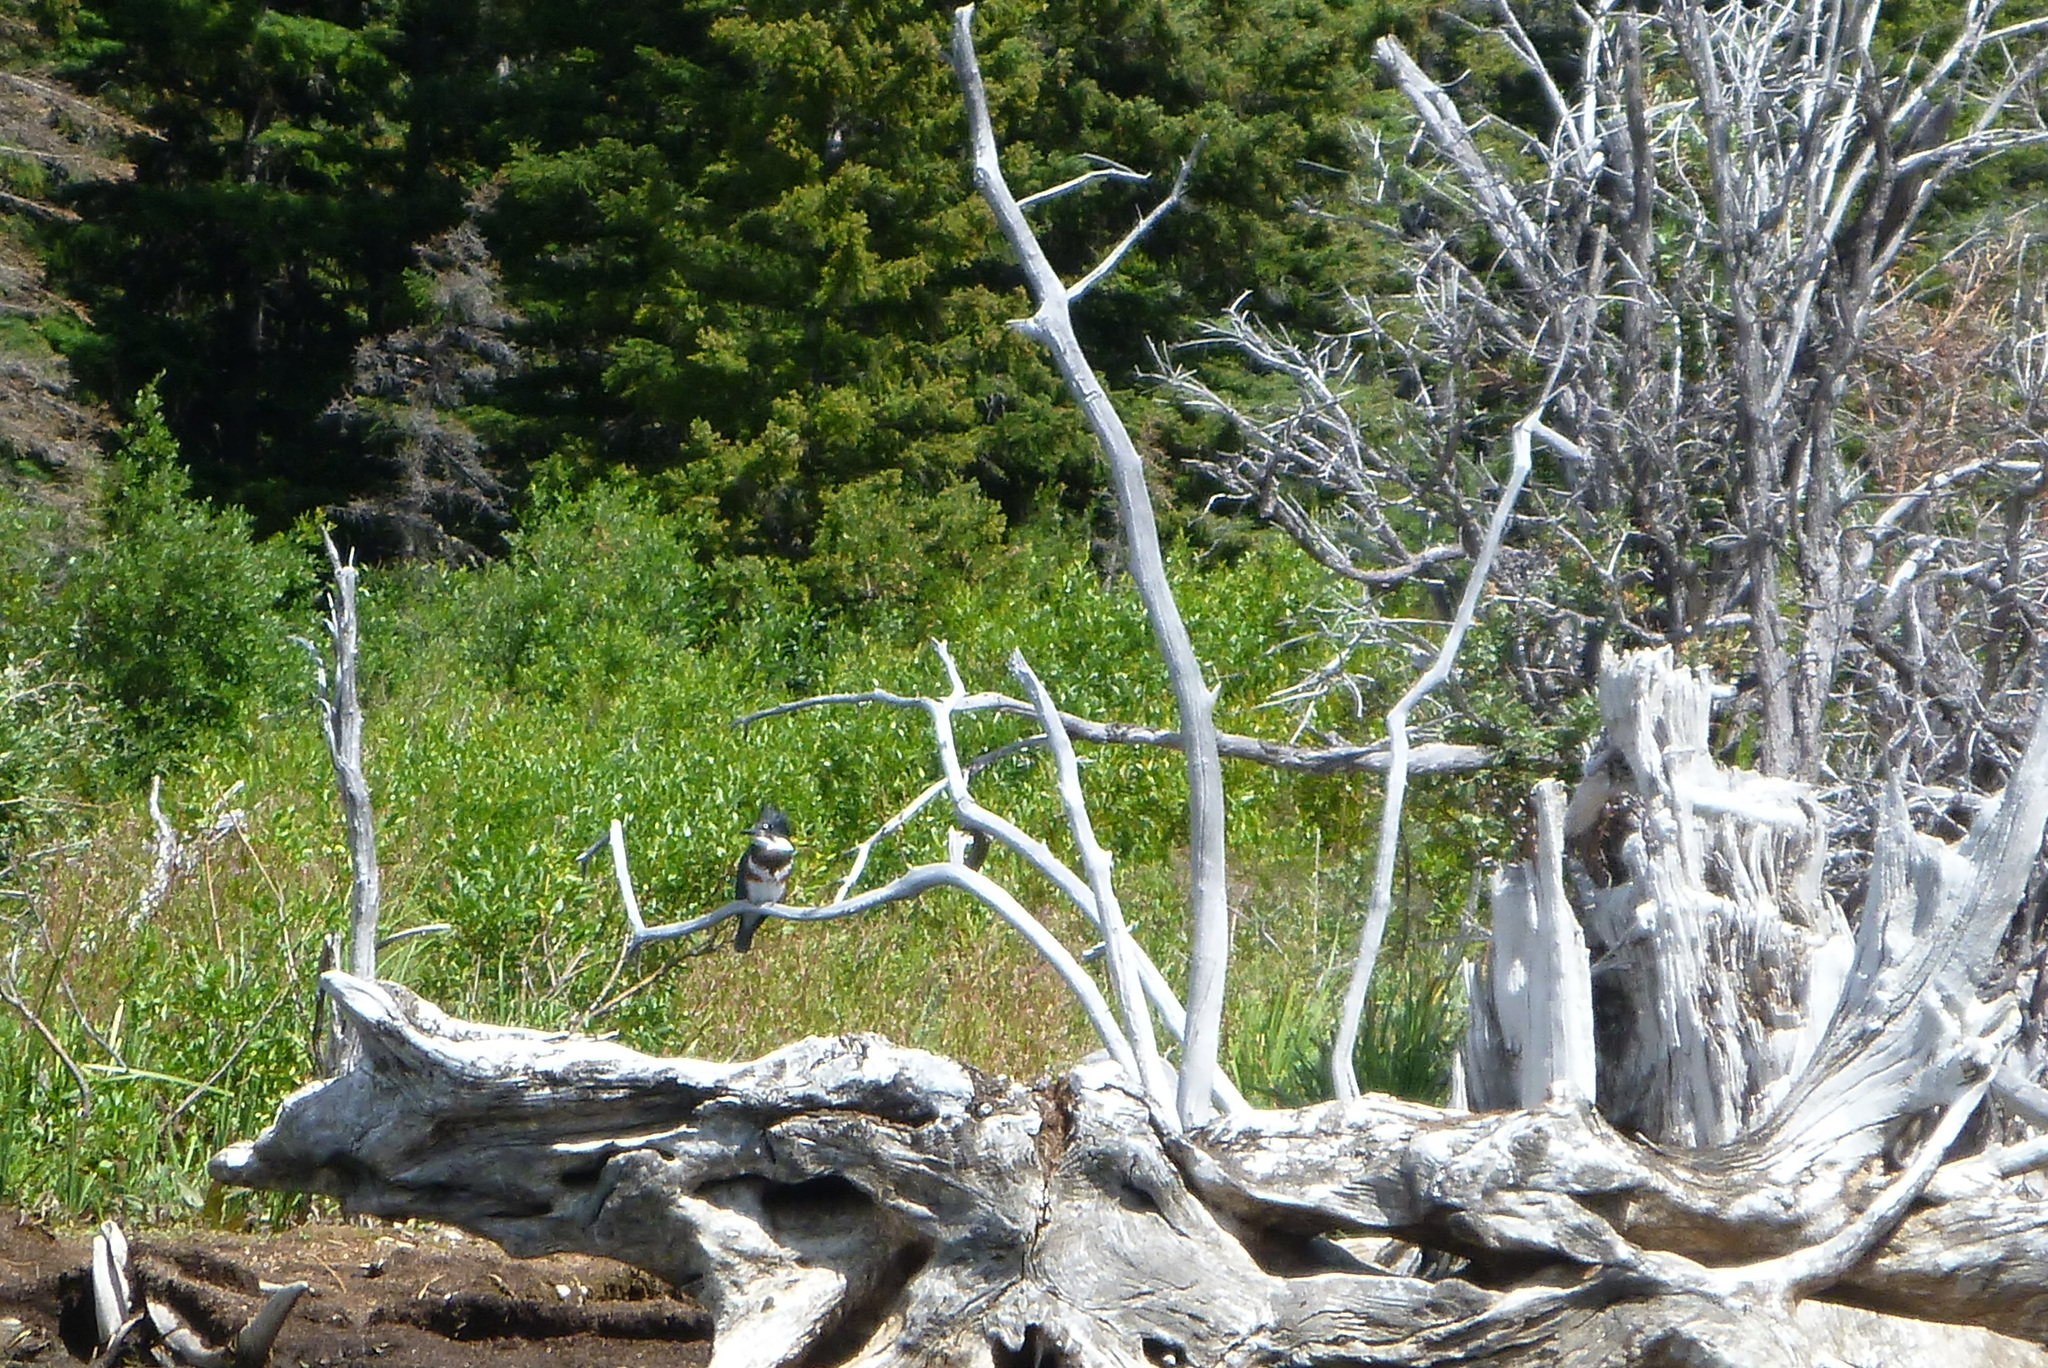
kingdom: Animalia
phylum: Chordata
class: Aves
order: Coraciiformes
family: Alcedinidae
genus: Megaceryle
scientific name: Megaceryle alcyon
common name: Belted kingfisher
